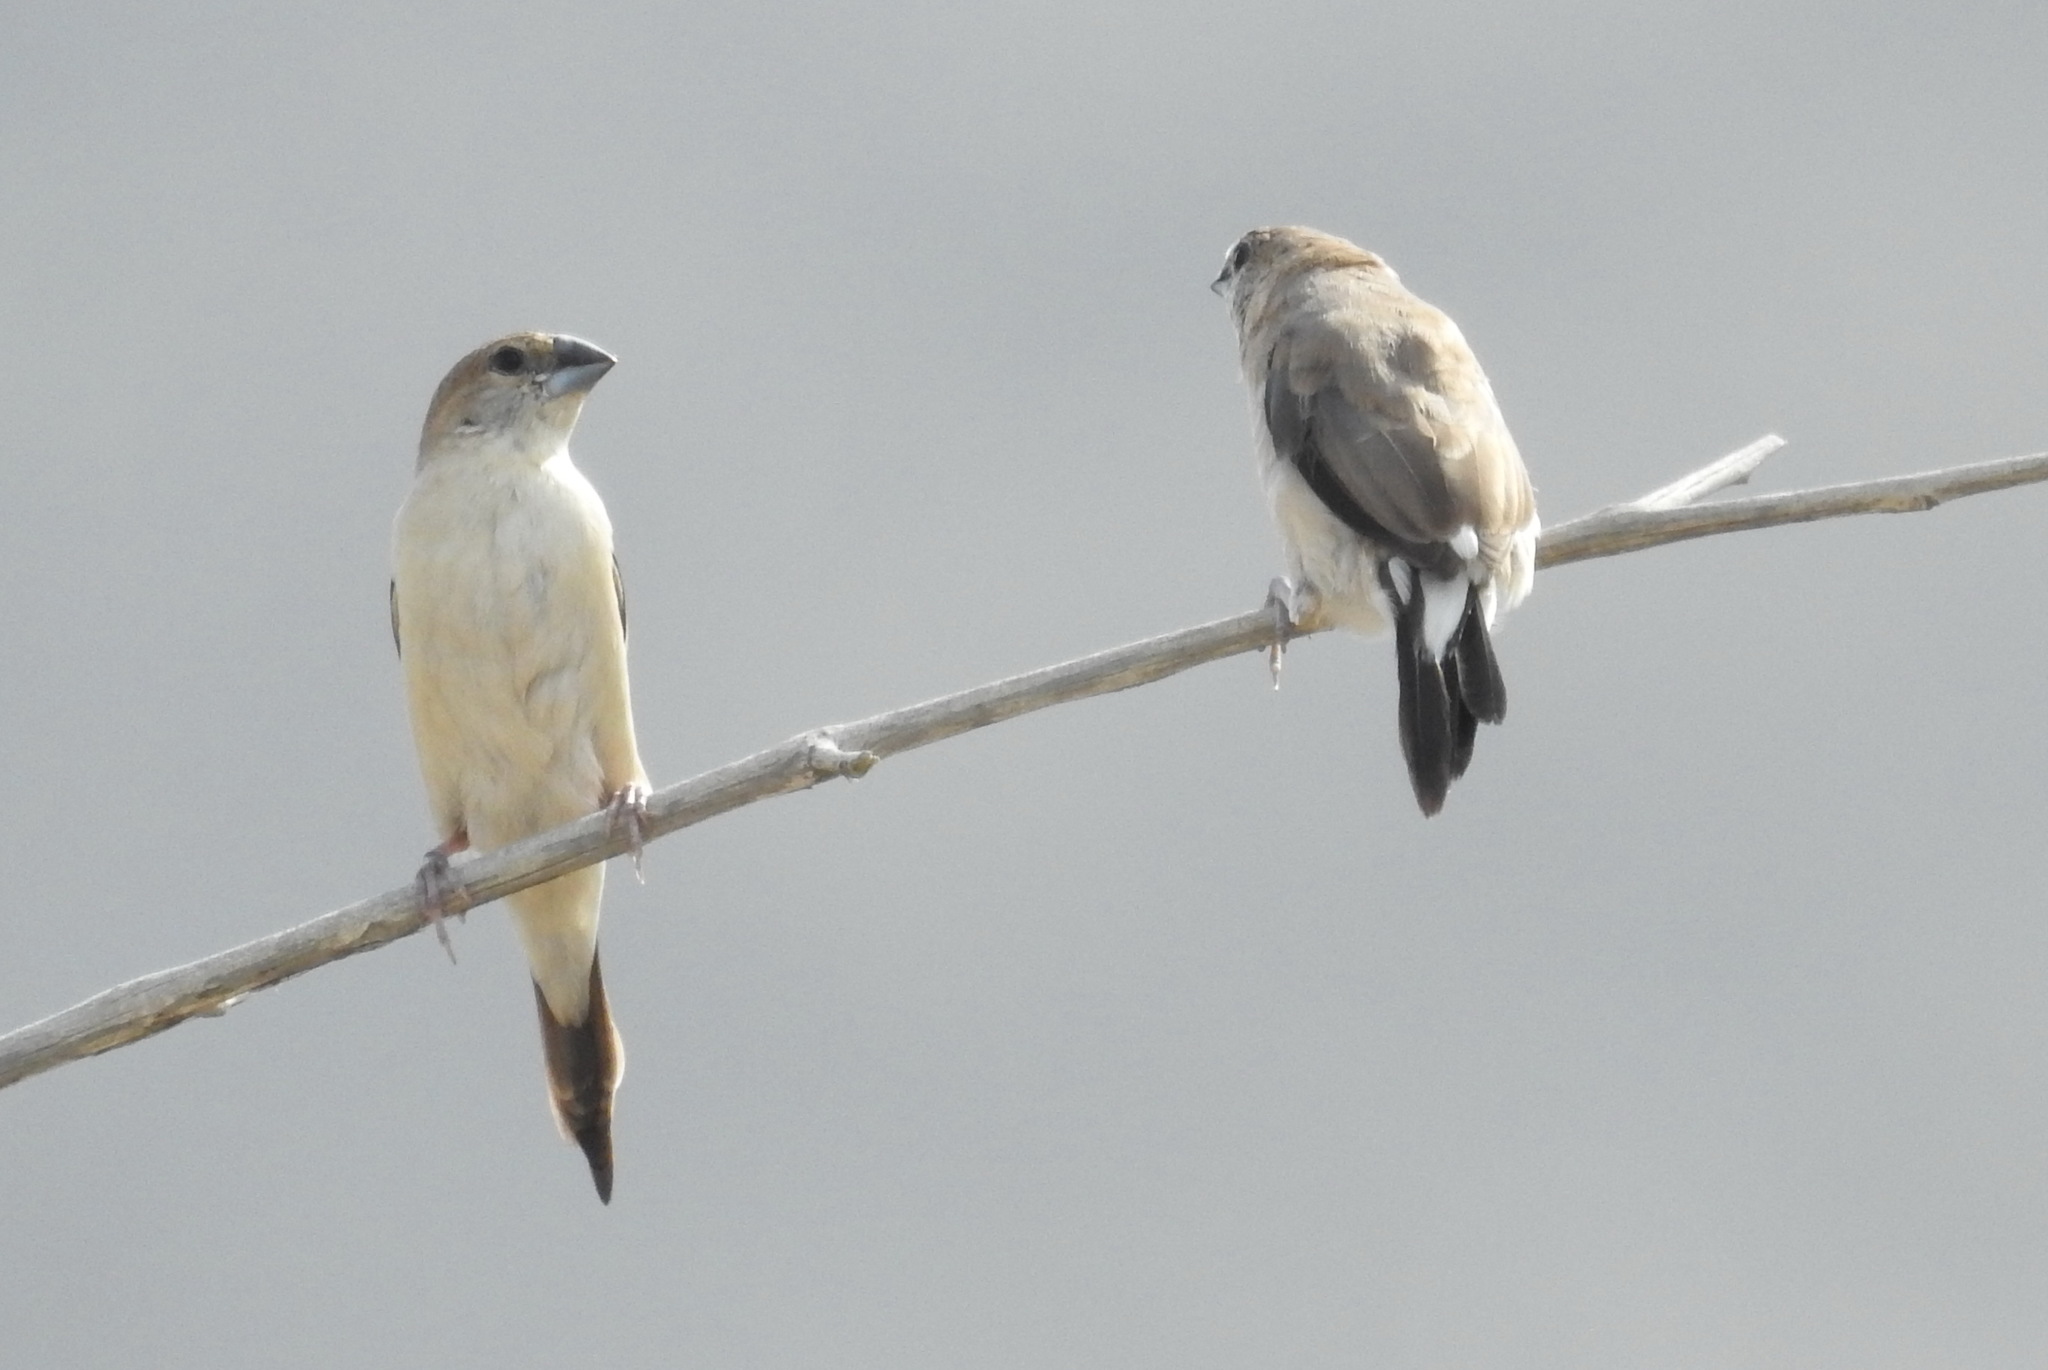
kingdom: Animalia
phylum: Chordata
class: Aves
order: Passeriformes
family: Estrildidae
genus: Euodice
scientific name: Euodice malabarica
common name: Indian silverbill
